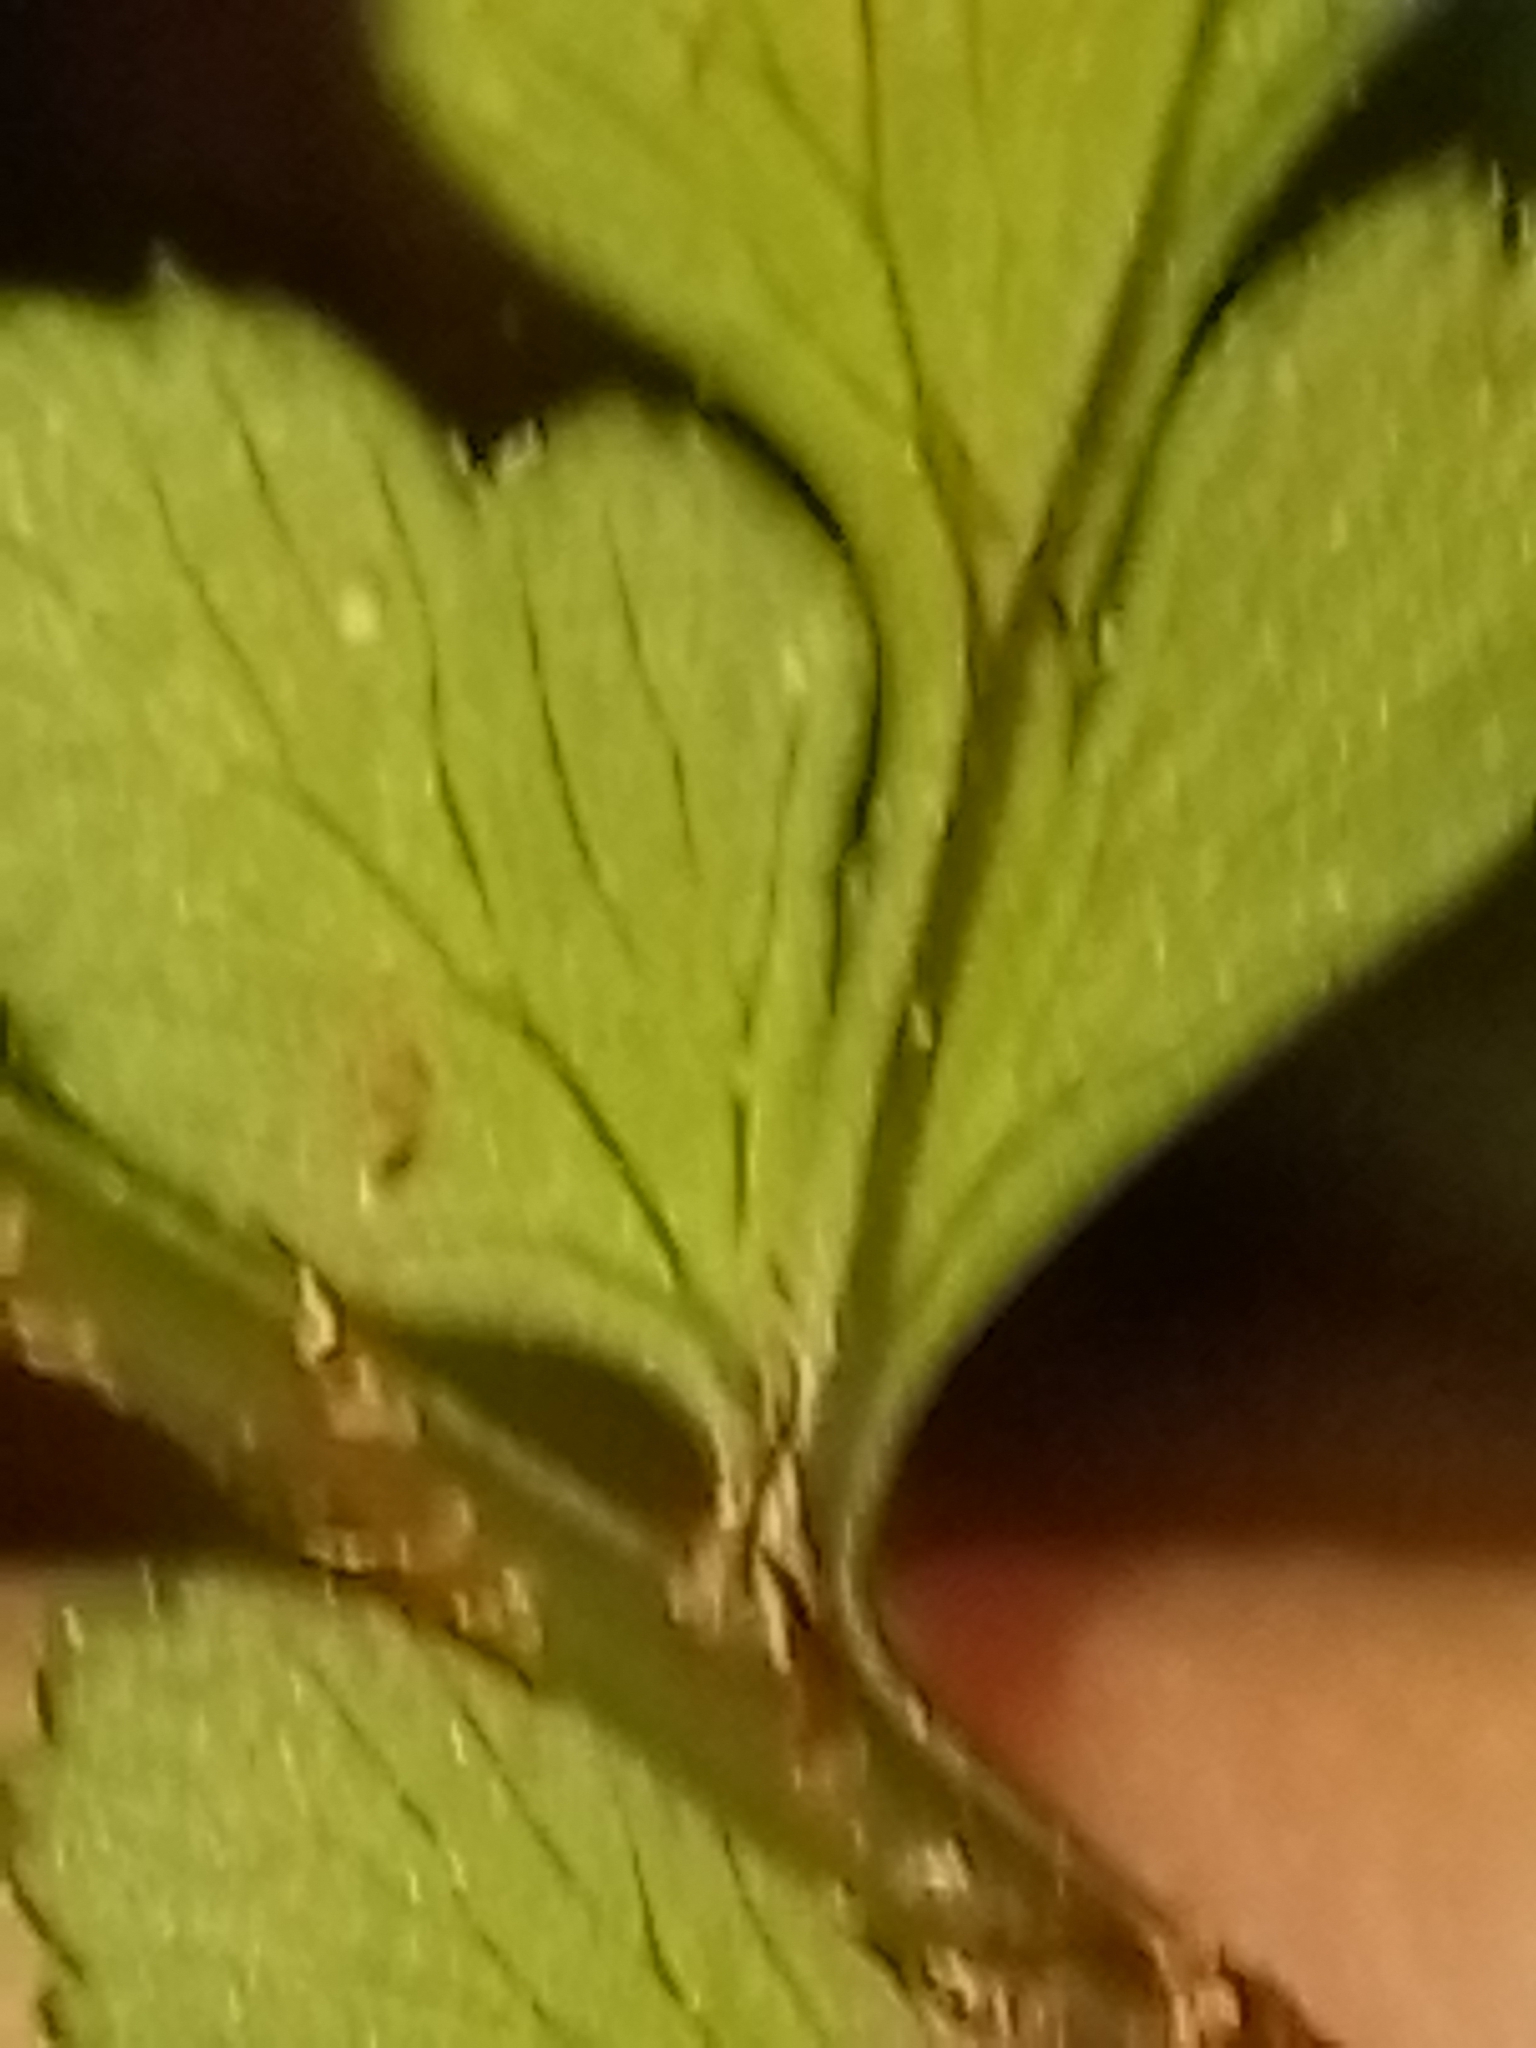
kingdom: Plantae
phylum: Tracheophyta
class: Polypodiopsida
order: Polypodiales
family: Dryopteridaceae
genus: Polystichum
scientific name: Polystichum oculatum
